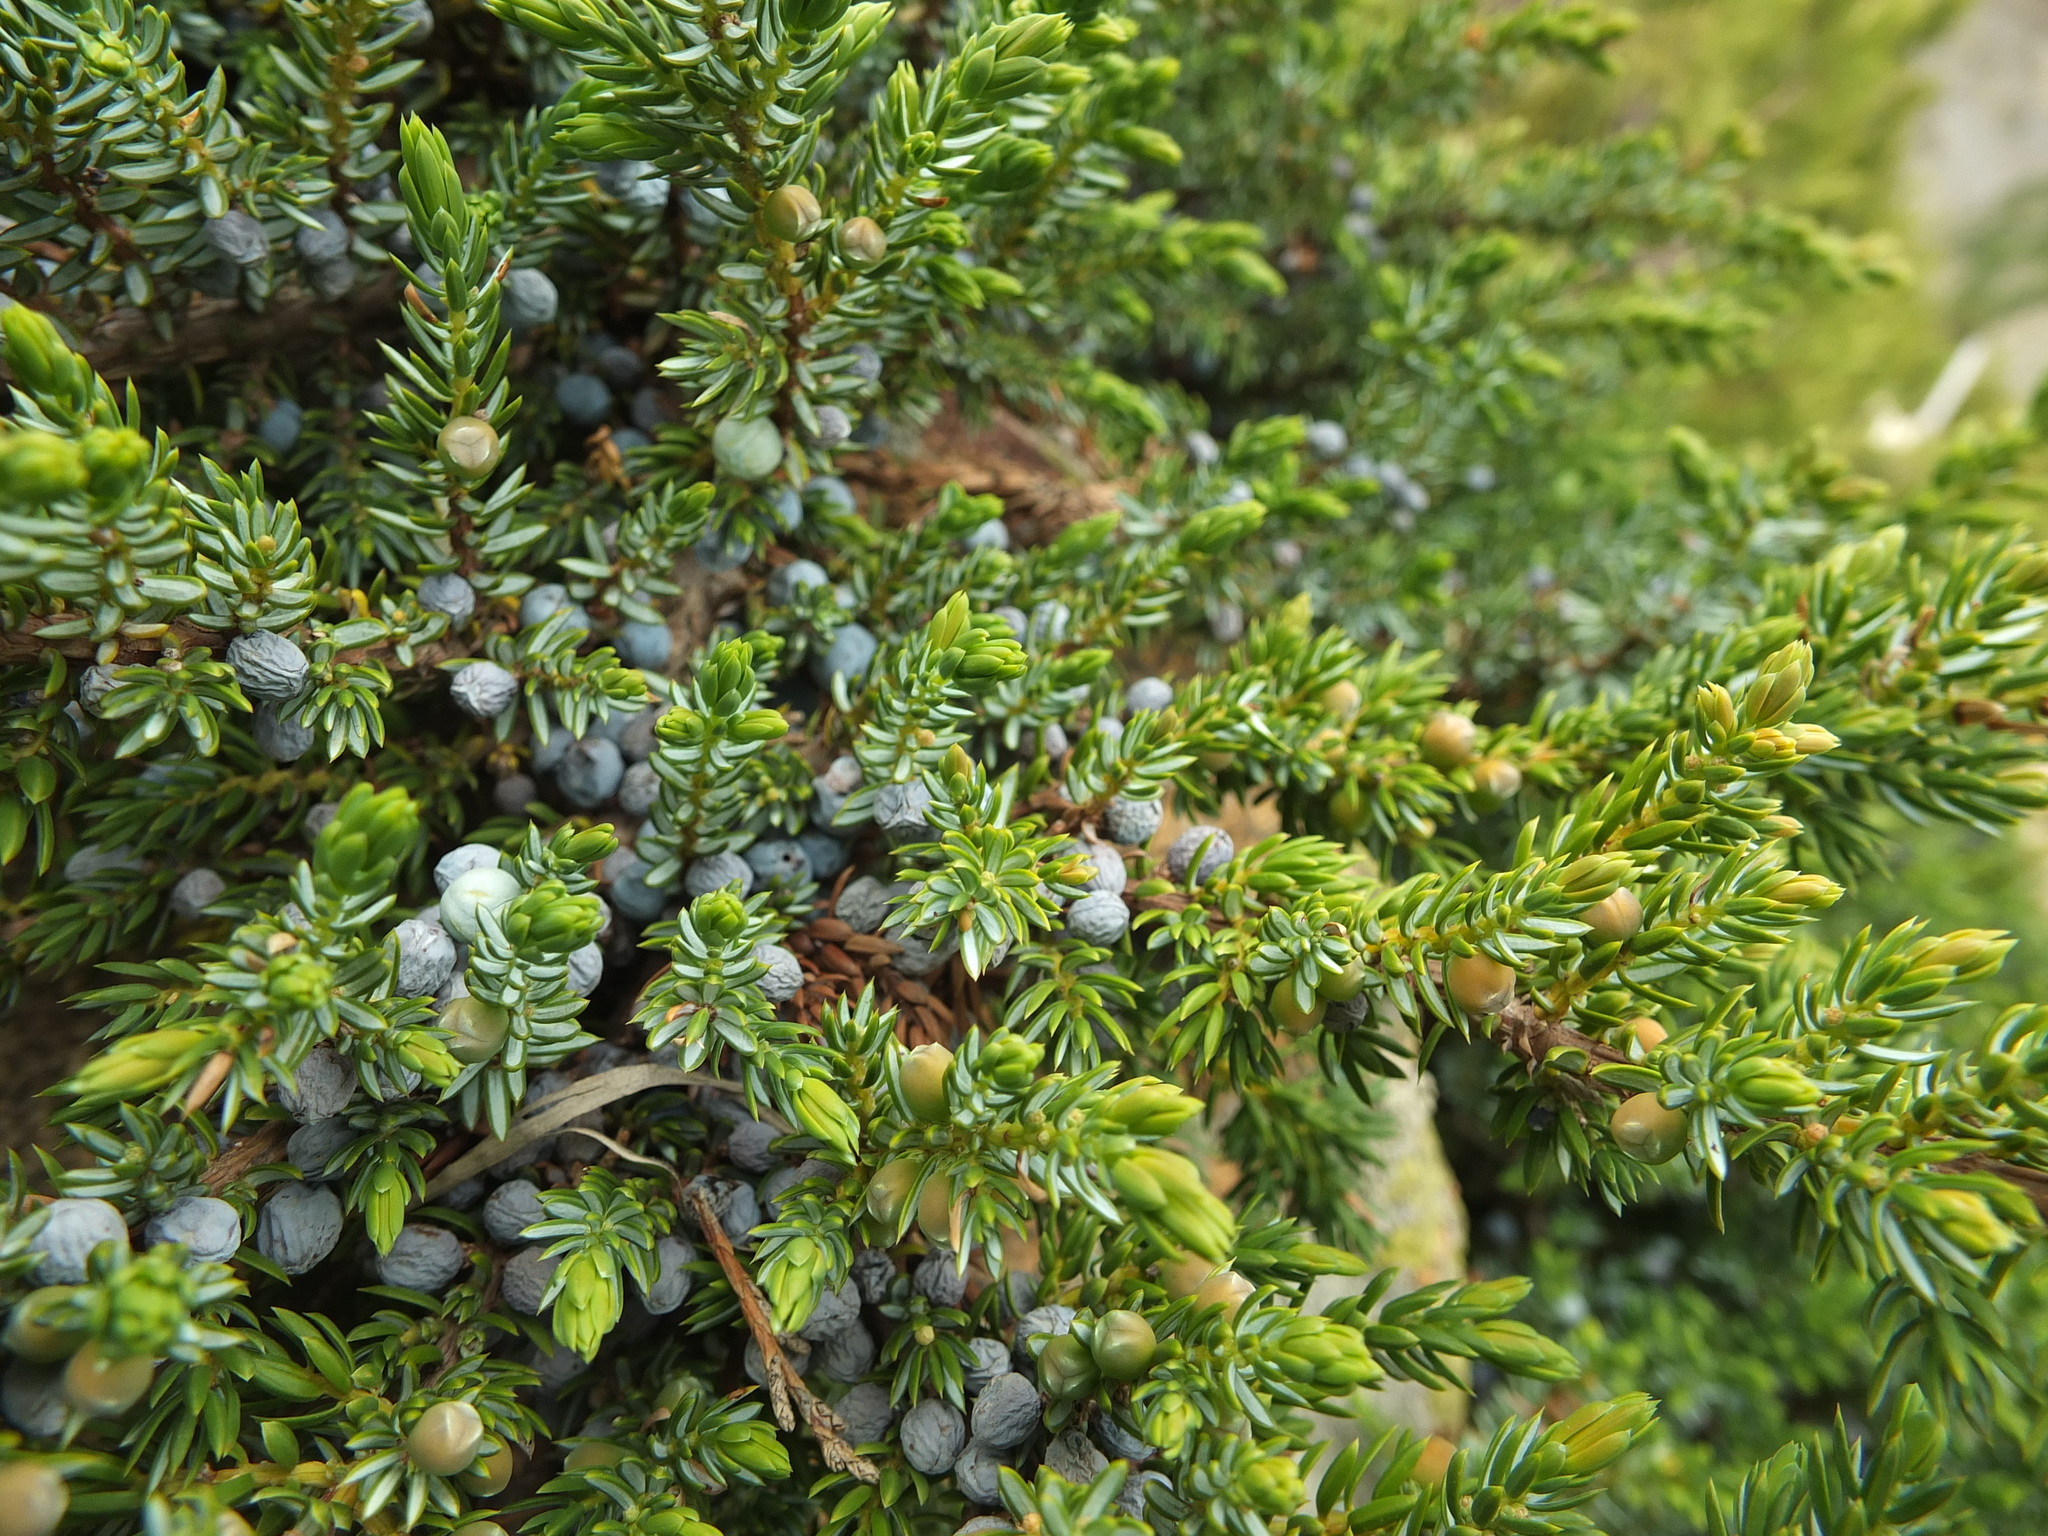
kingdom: Plantae
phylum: Tracheophyta
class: Pinopsida
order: Pinales
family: Cupressaceae
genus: Juniperus
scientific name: Juniperus communis
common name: Common juniper
